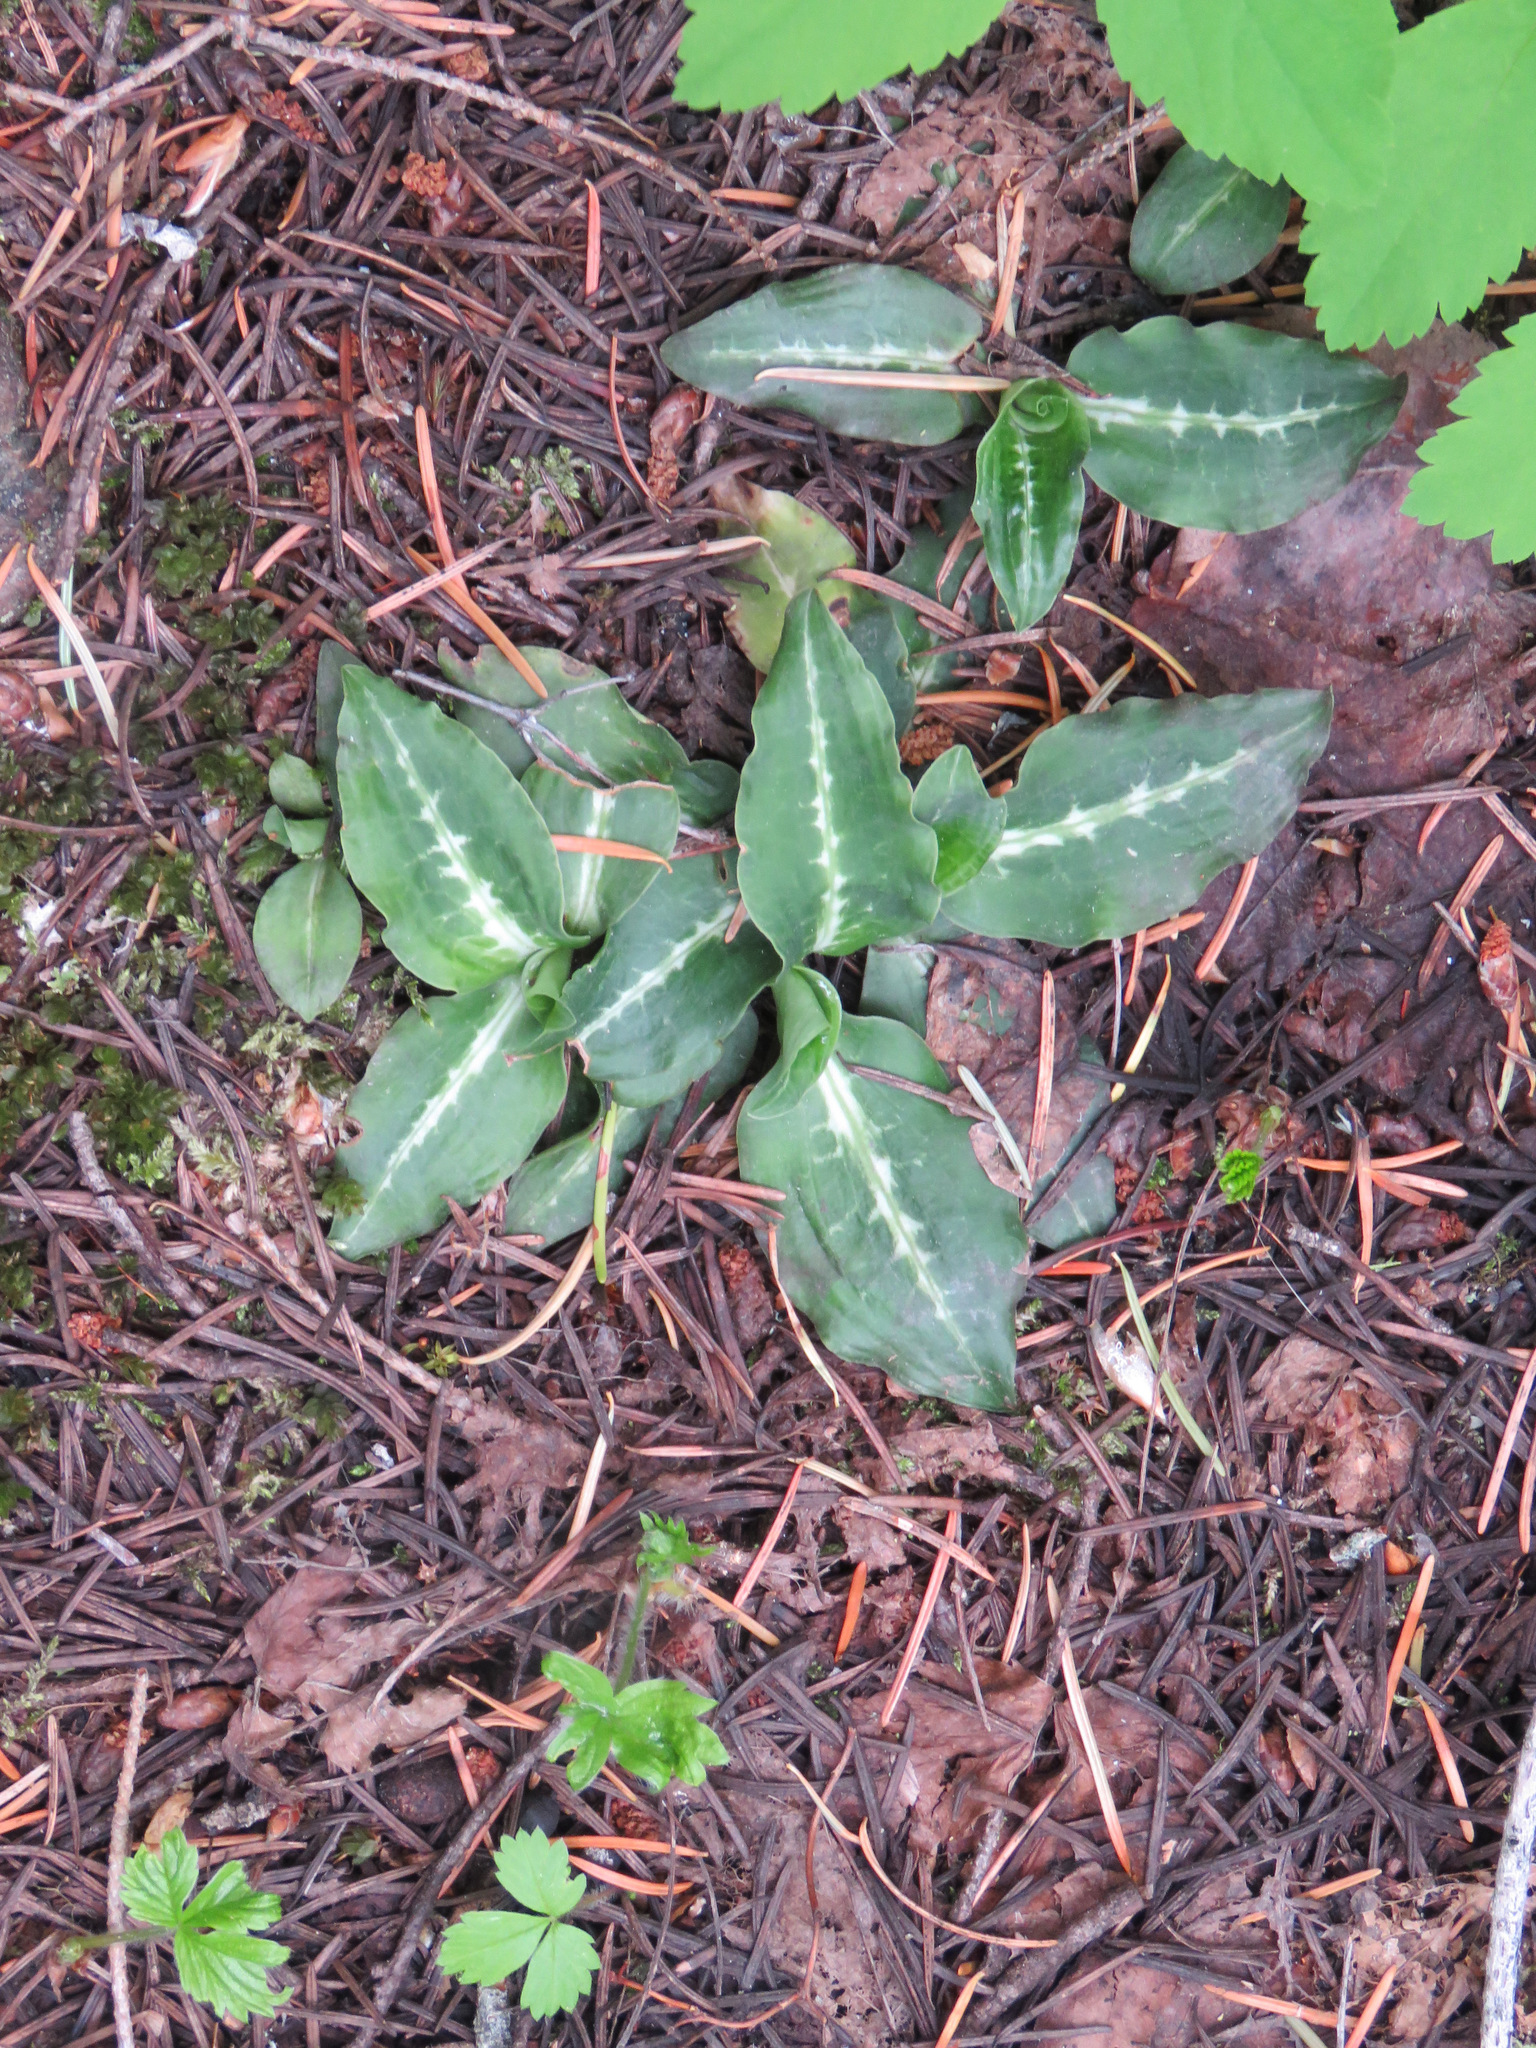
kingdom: Plantae
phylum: Tracheophyta
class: Liliopsida
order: Asparagales
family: Orchidaceae
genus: Goodyera
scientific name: Goodyera oblongifolia
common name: Giant rattlesnake-plantain
